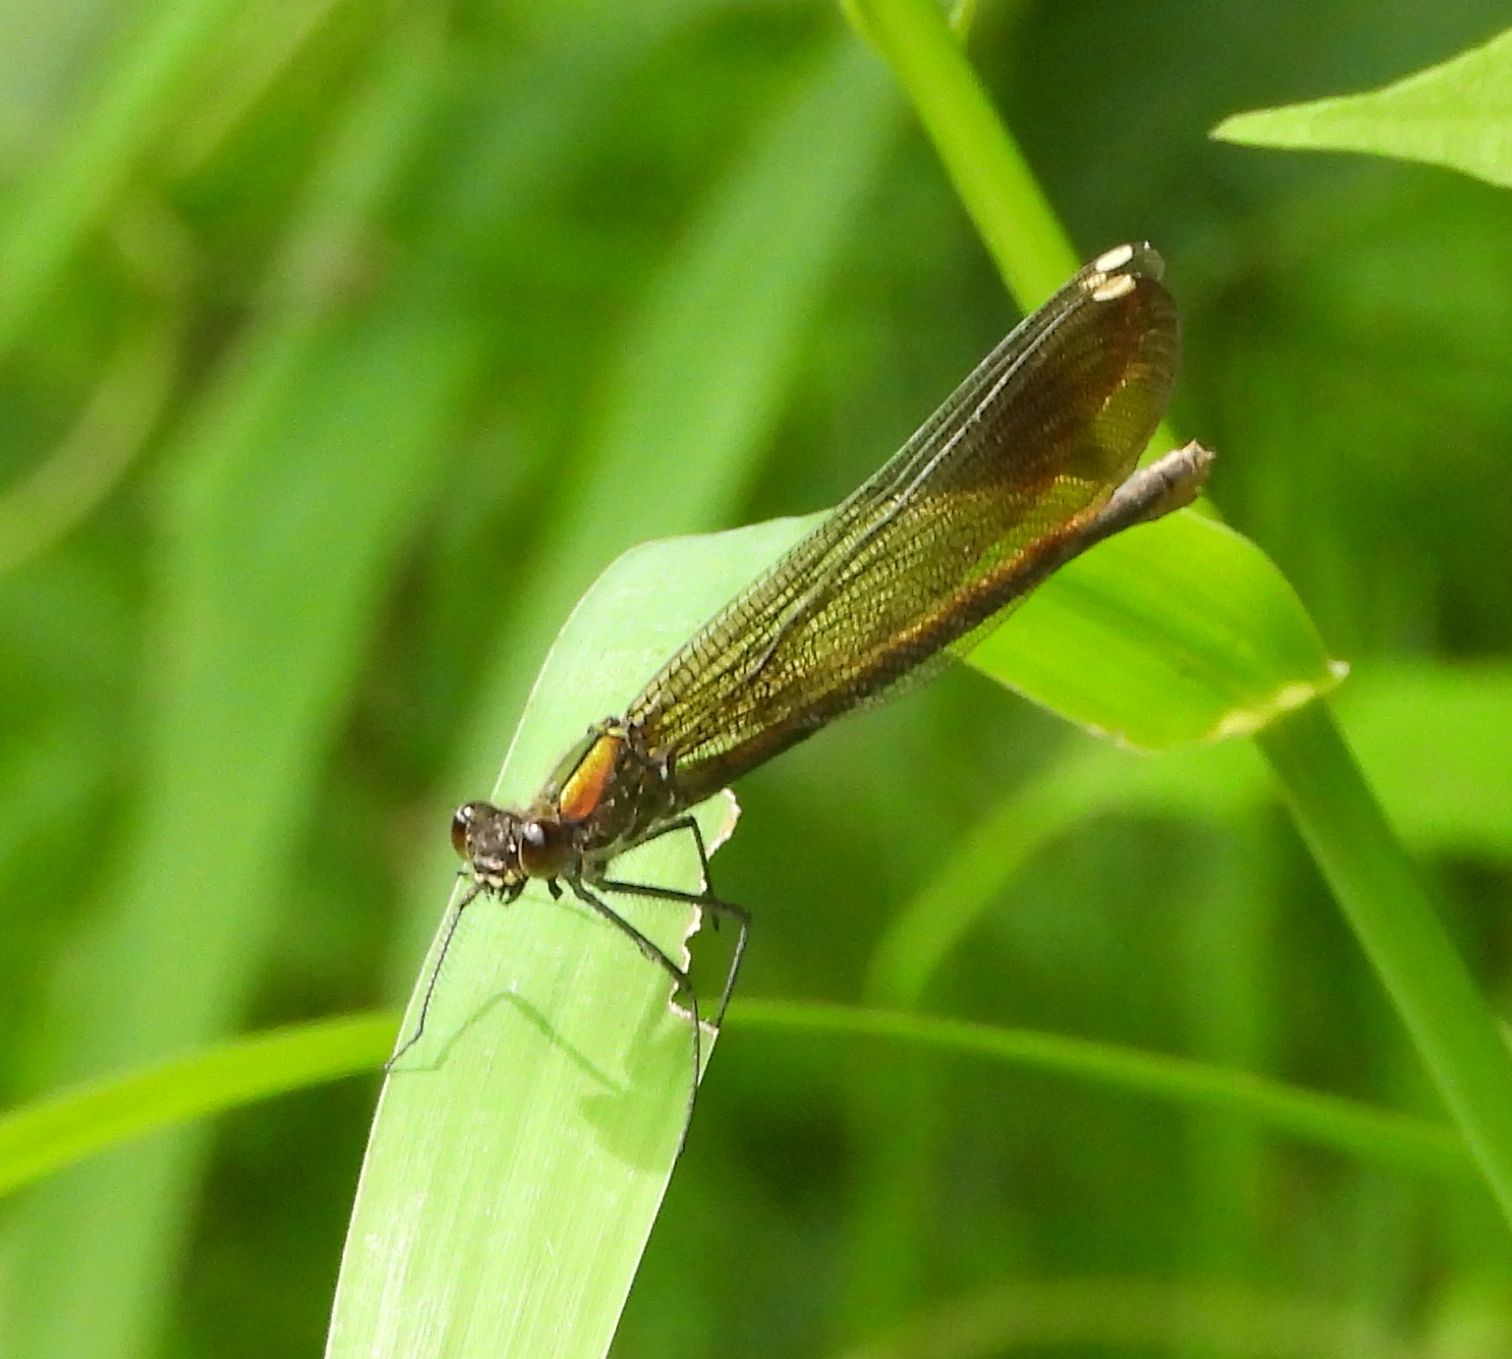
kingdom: Animalia
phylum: Arthropoda
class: Insecta
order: Odonata
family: Calopterygidae
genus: Calopteryx
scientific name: Calopteryx aequabilis
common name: River jewelwing
